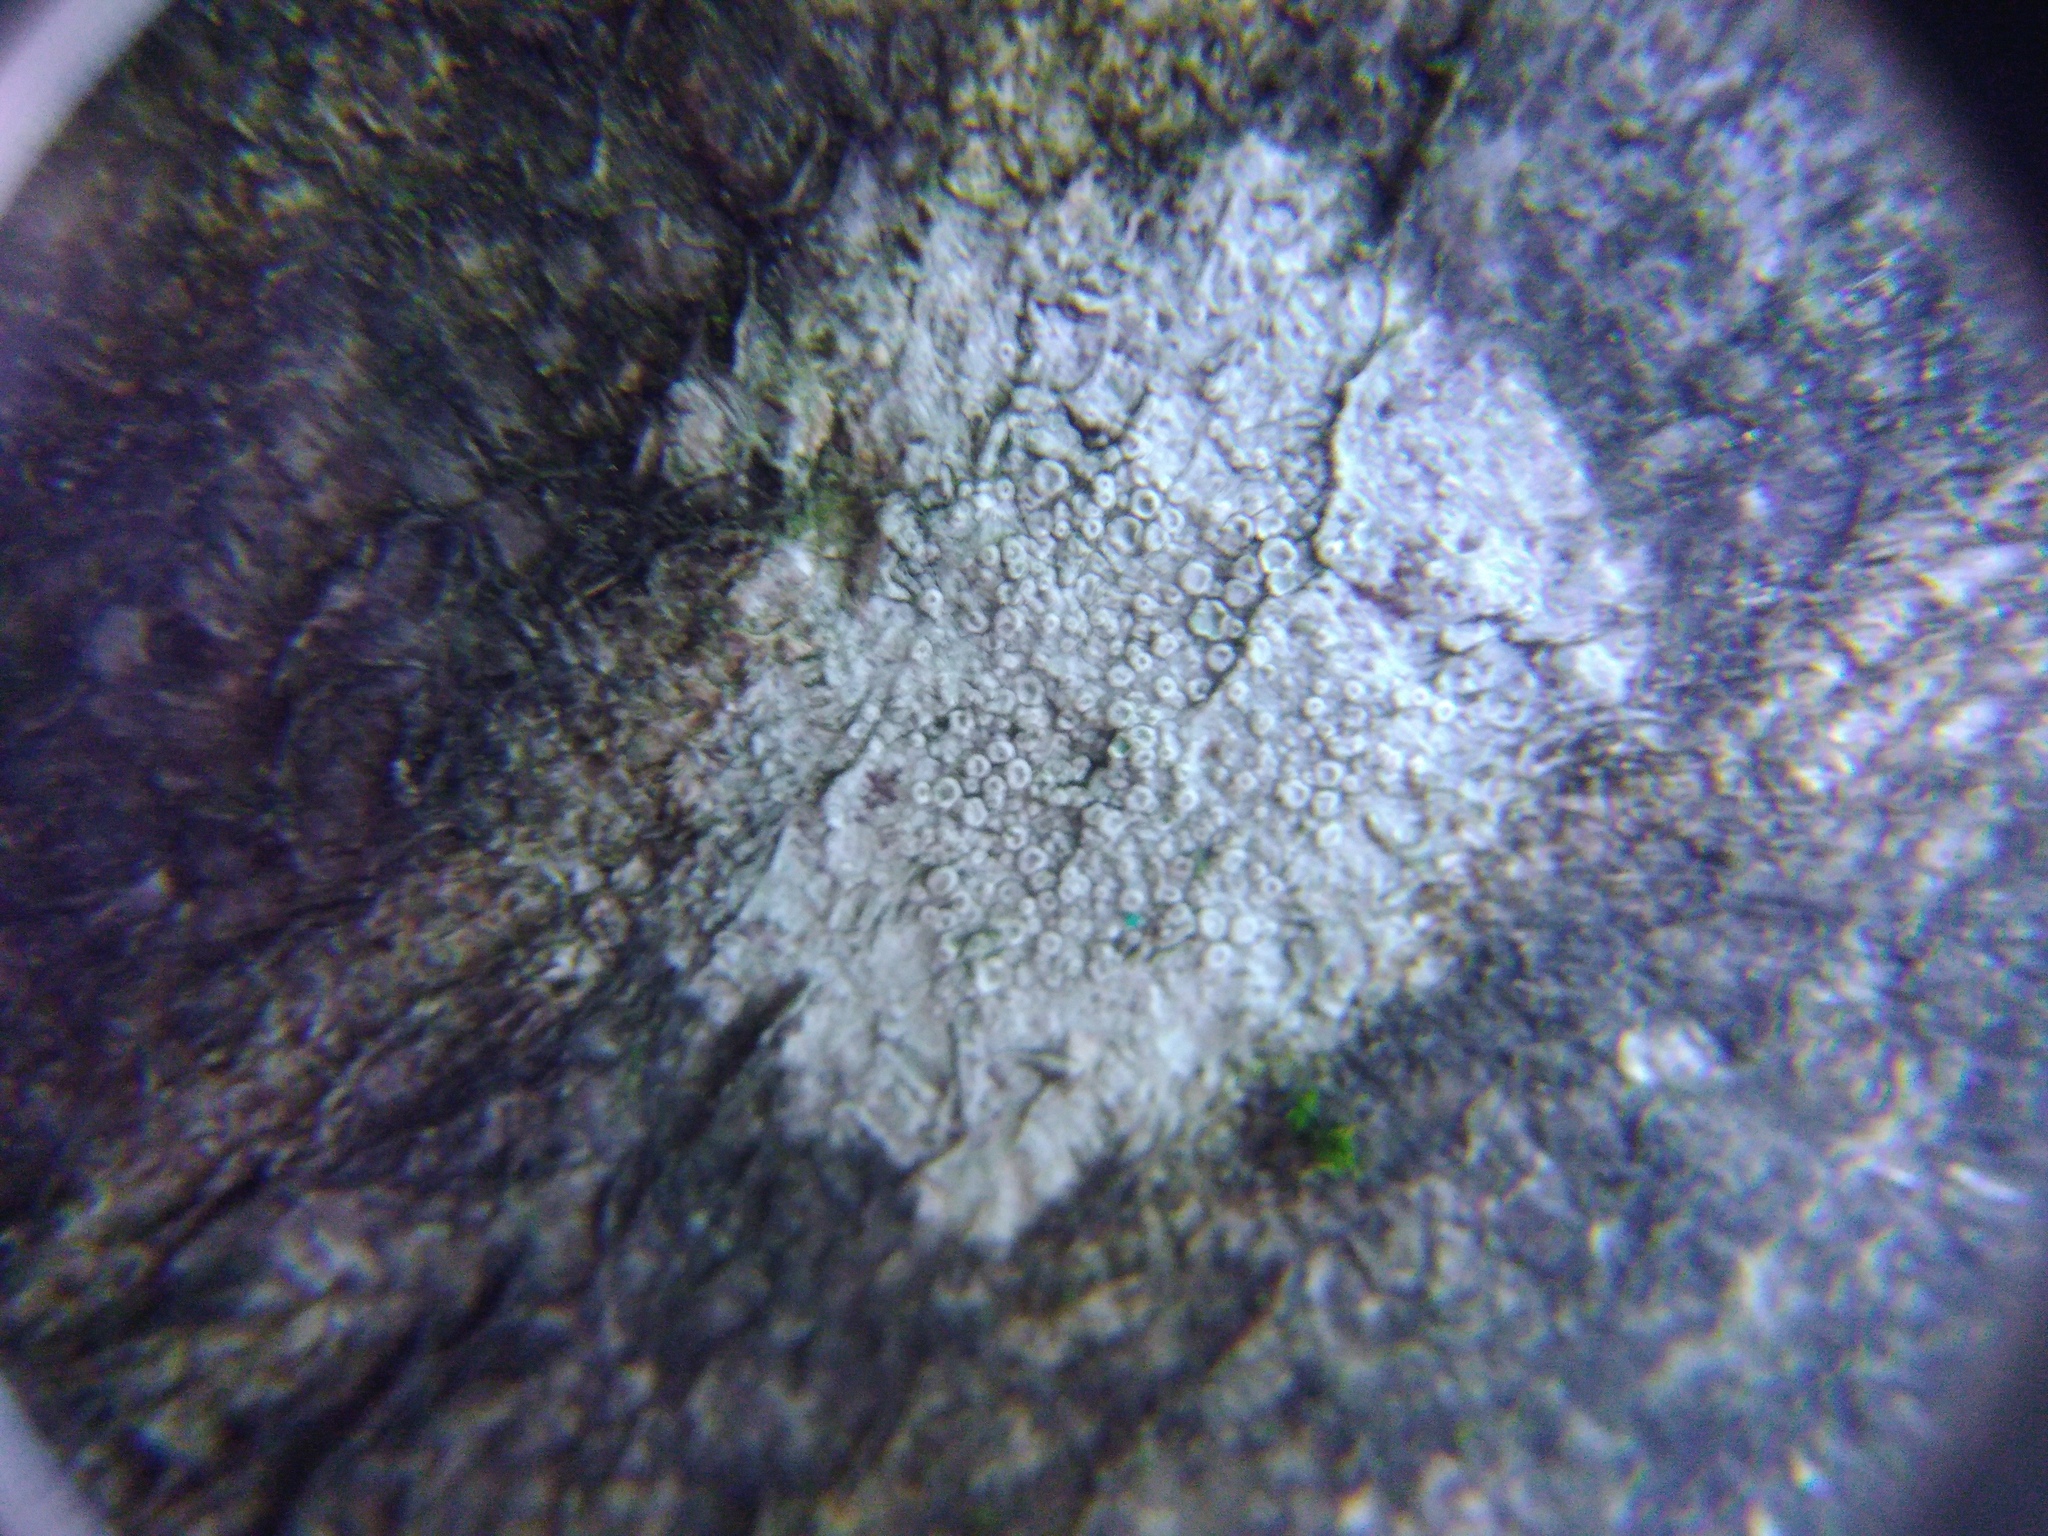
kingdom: Fungi
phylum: Ascomycota
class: Lecanoromycetes
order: Lecanorales
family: Lecanoraceae
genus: Glaucomaria
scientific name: Glaucomaria carpinea
